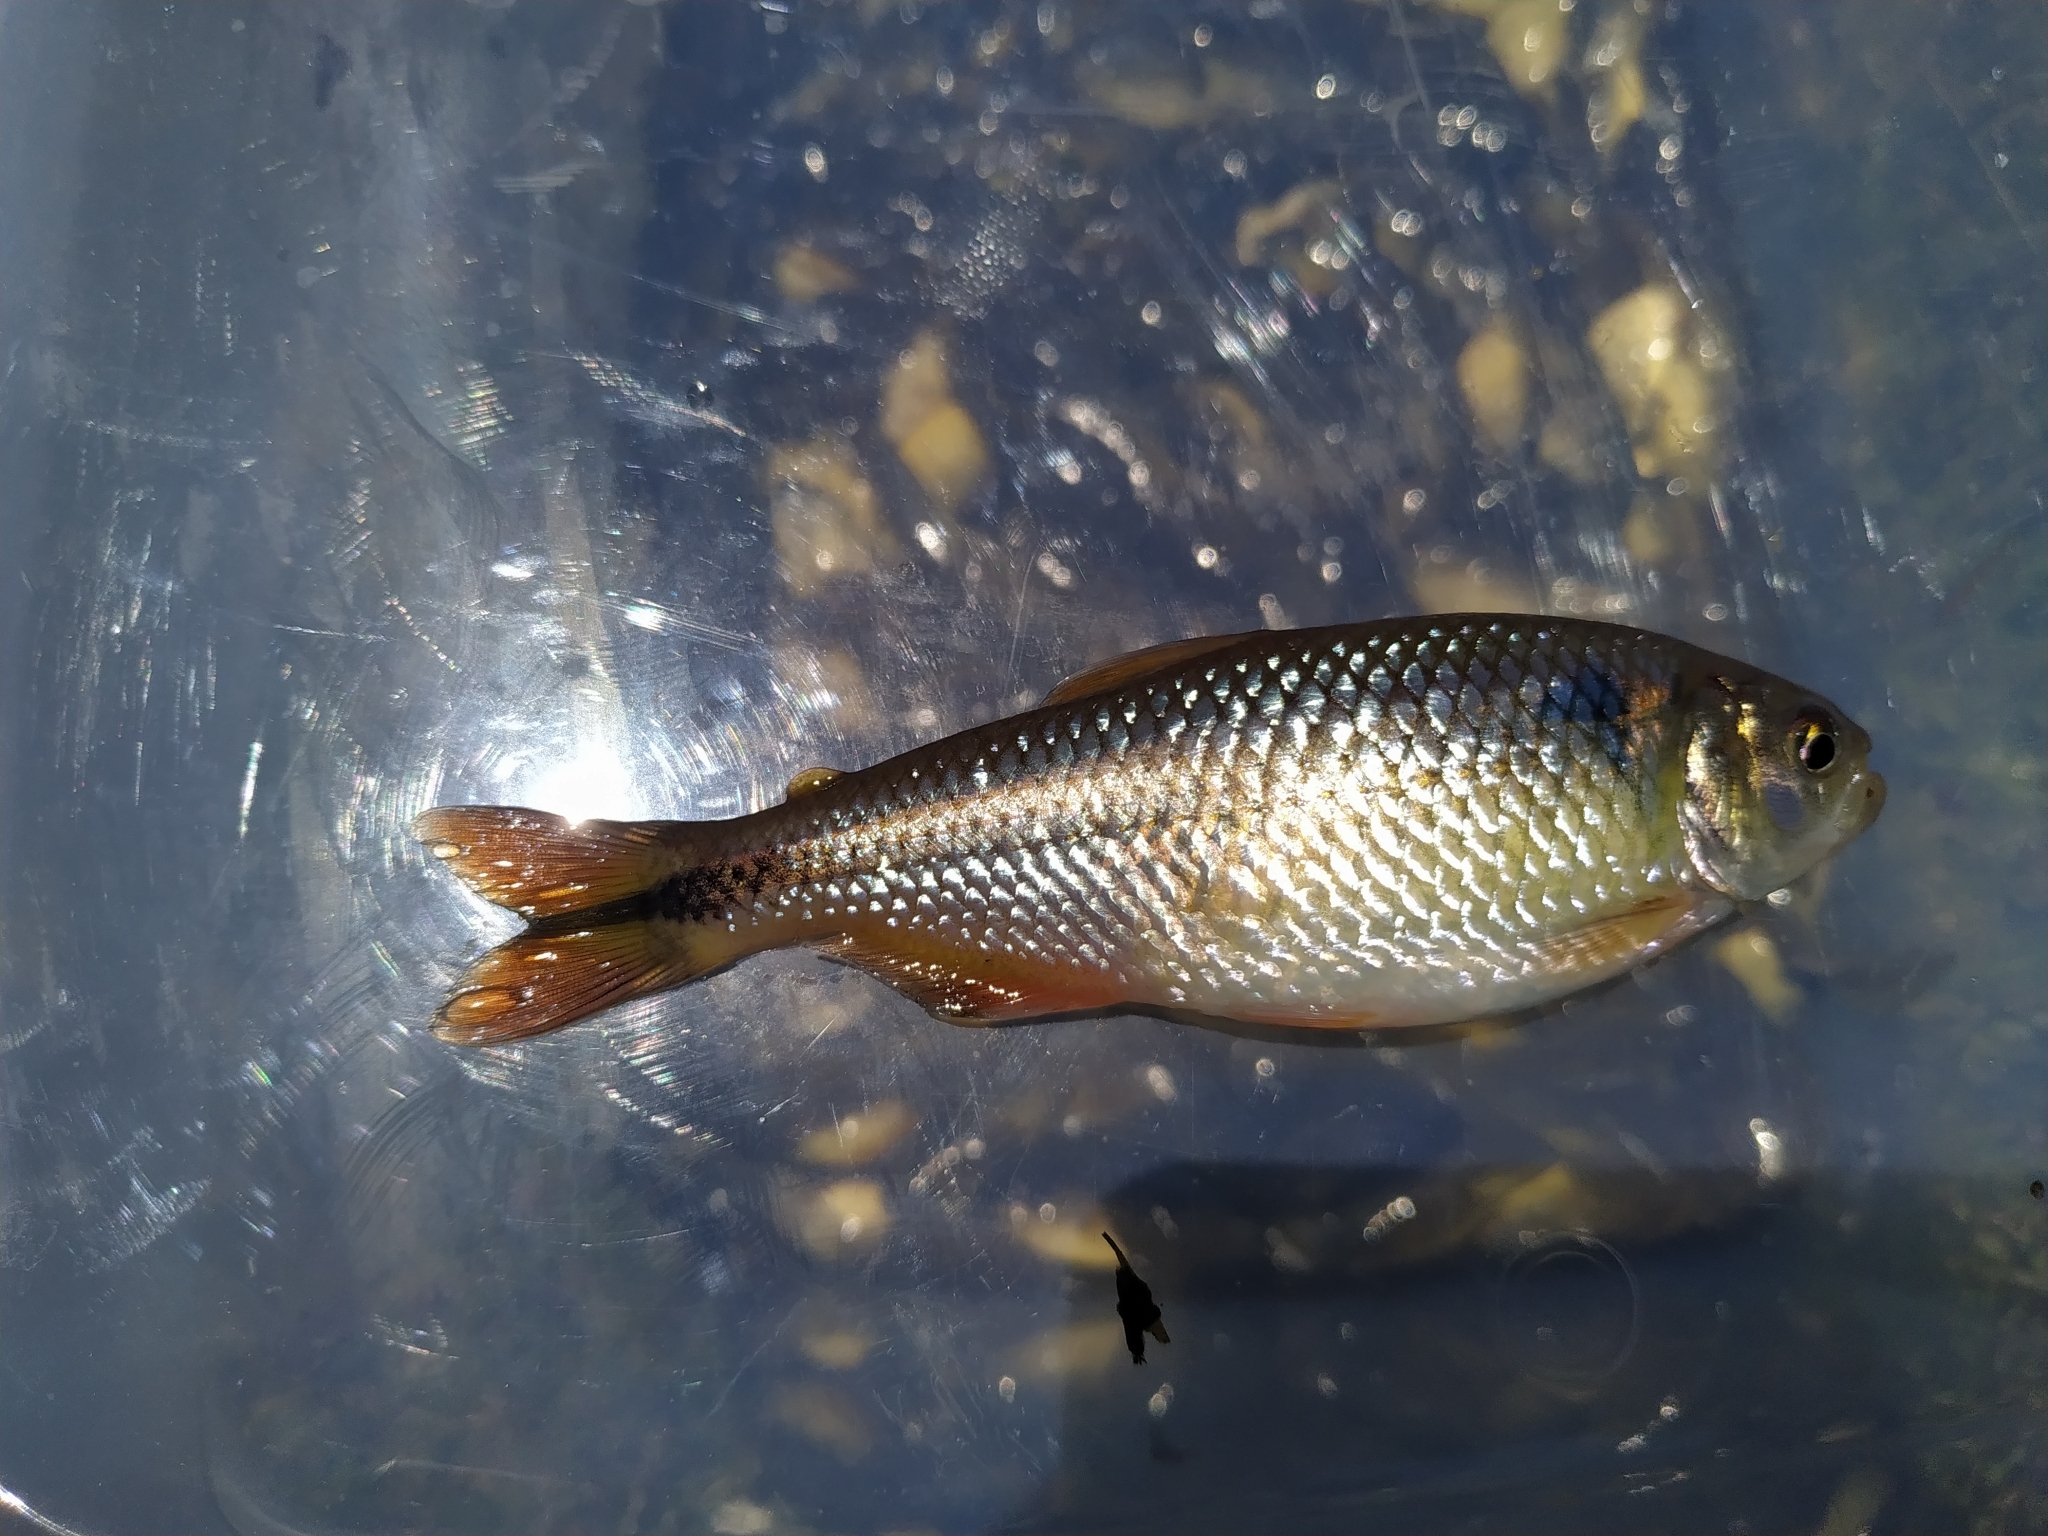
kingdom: Animalia
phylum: Chordata
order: Characiformes
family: Characidae
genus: Astyanax
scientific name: Astyanax laticeps
